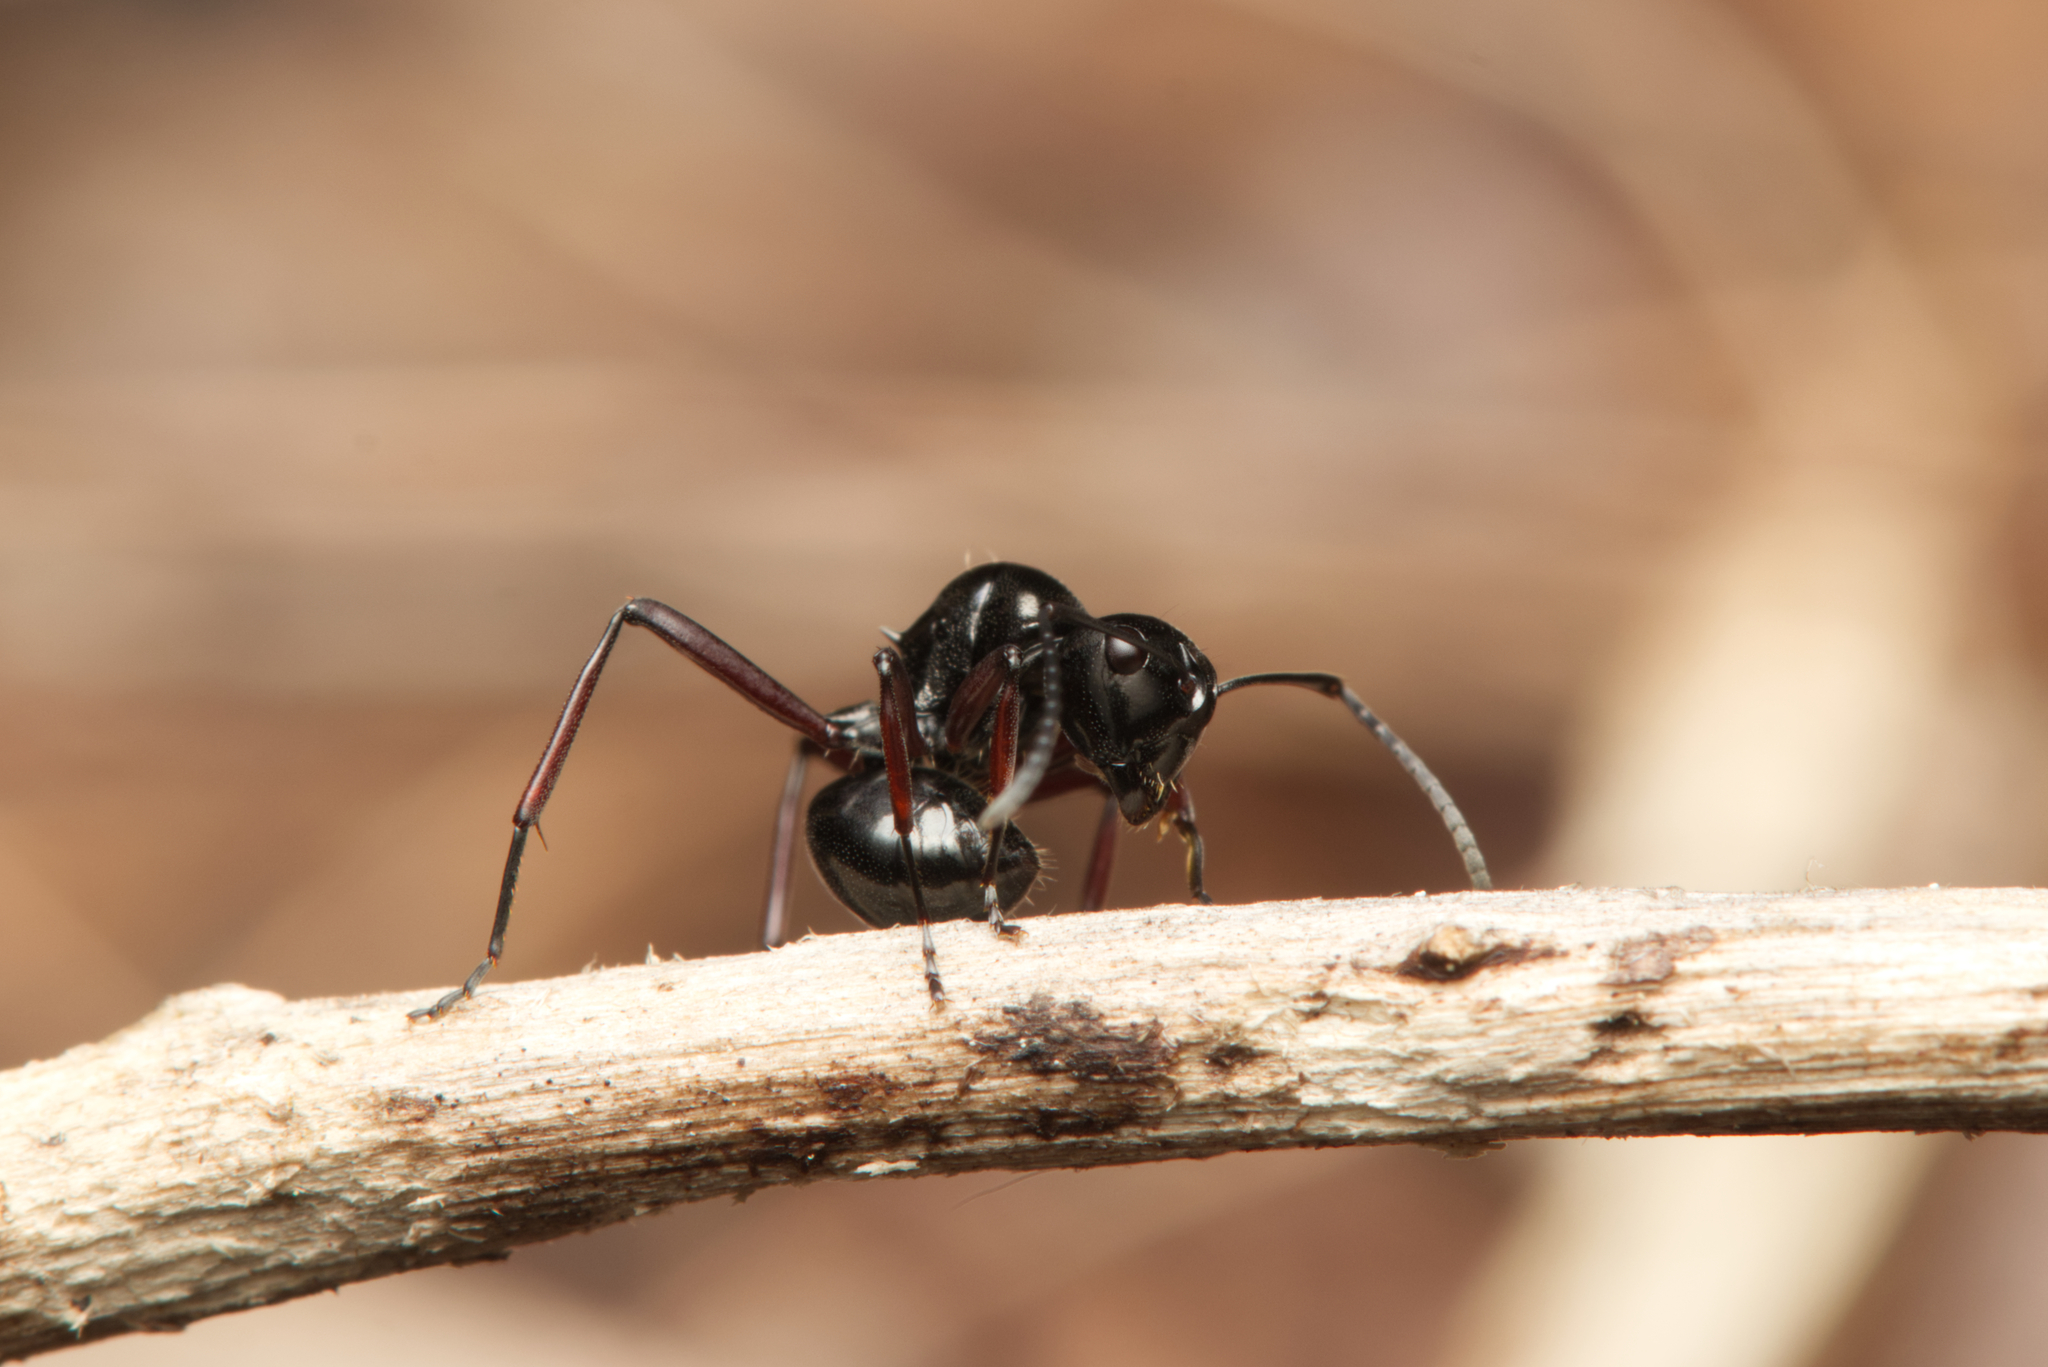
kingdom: Animalia
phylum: Arthropoda
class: Insecta
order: Hymenoptera
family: Formicidae
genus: Polyrhachis
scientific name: Polyrhachis australis
